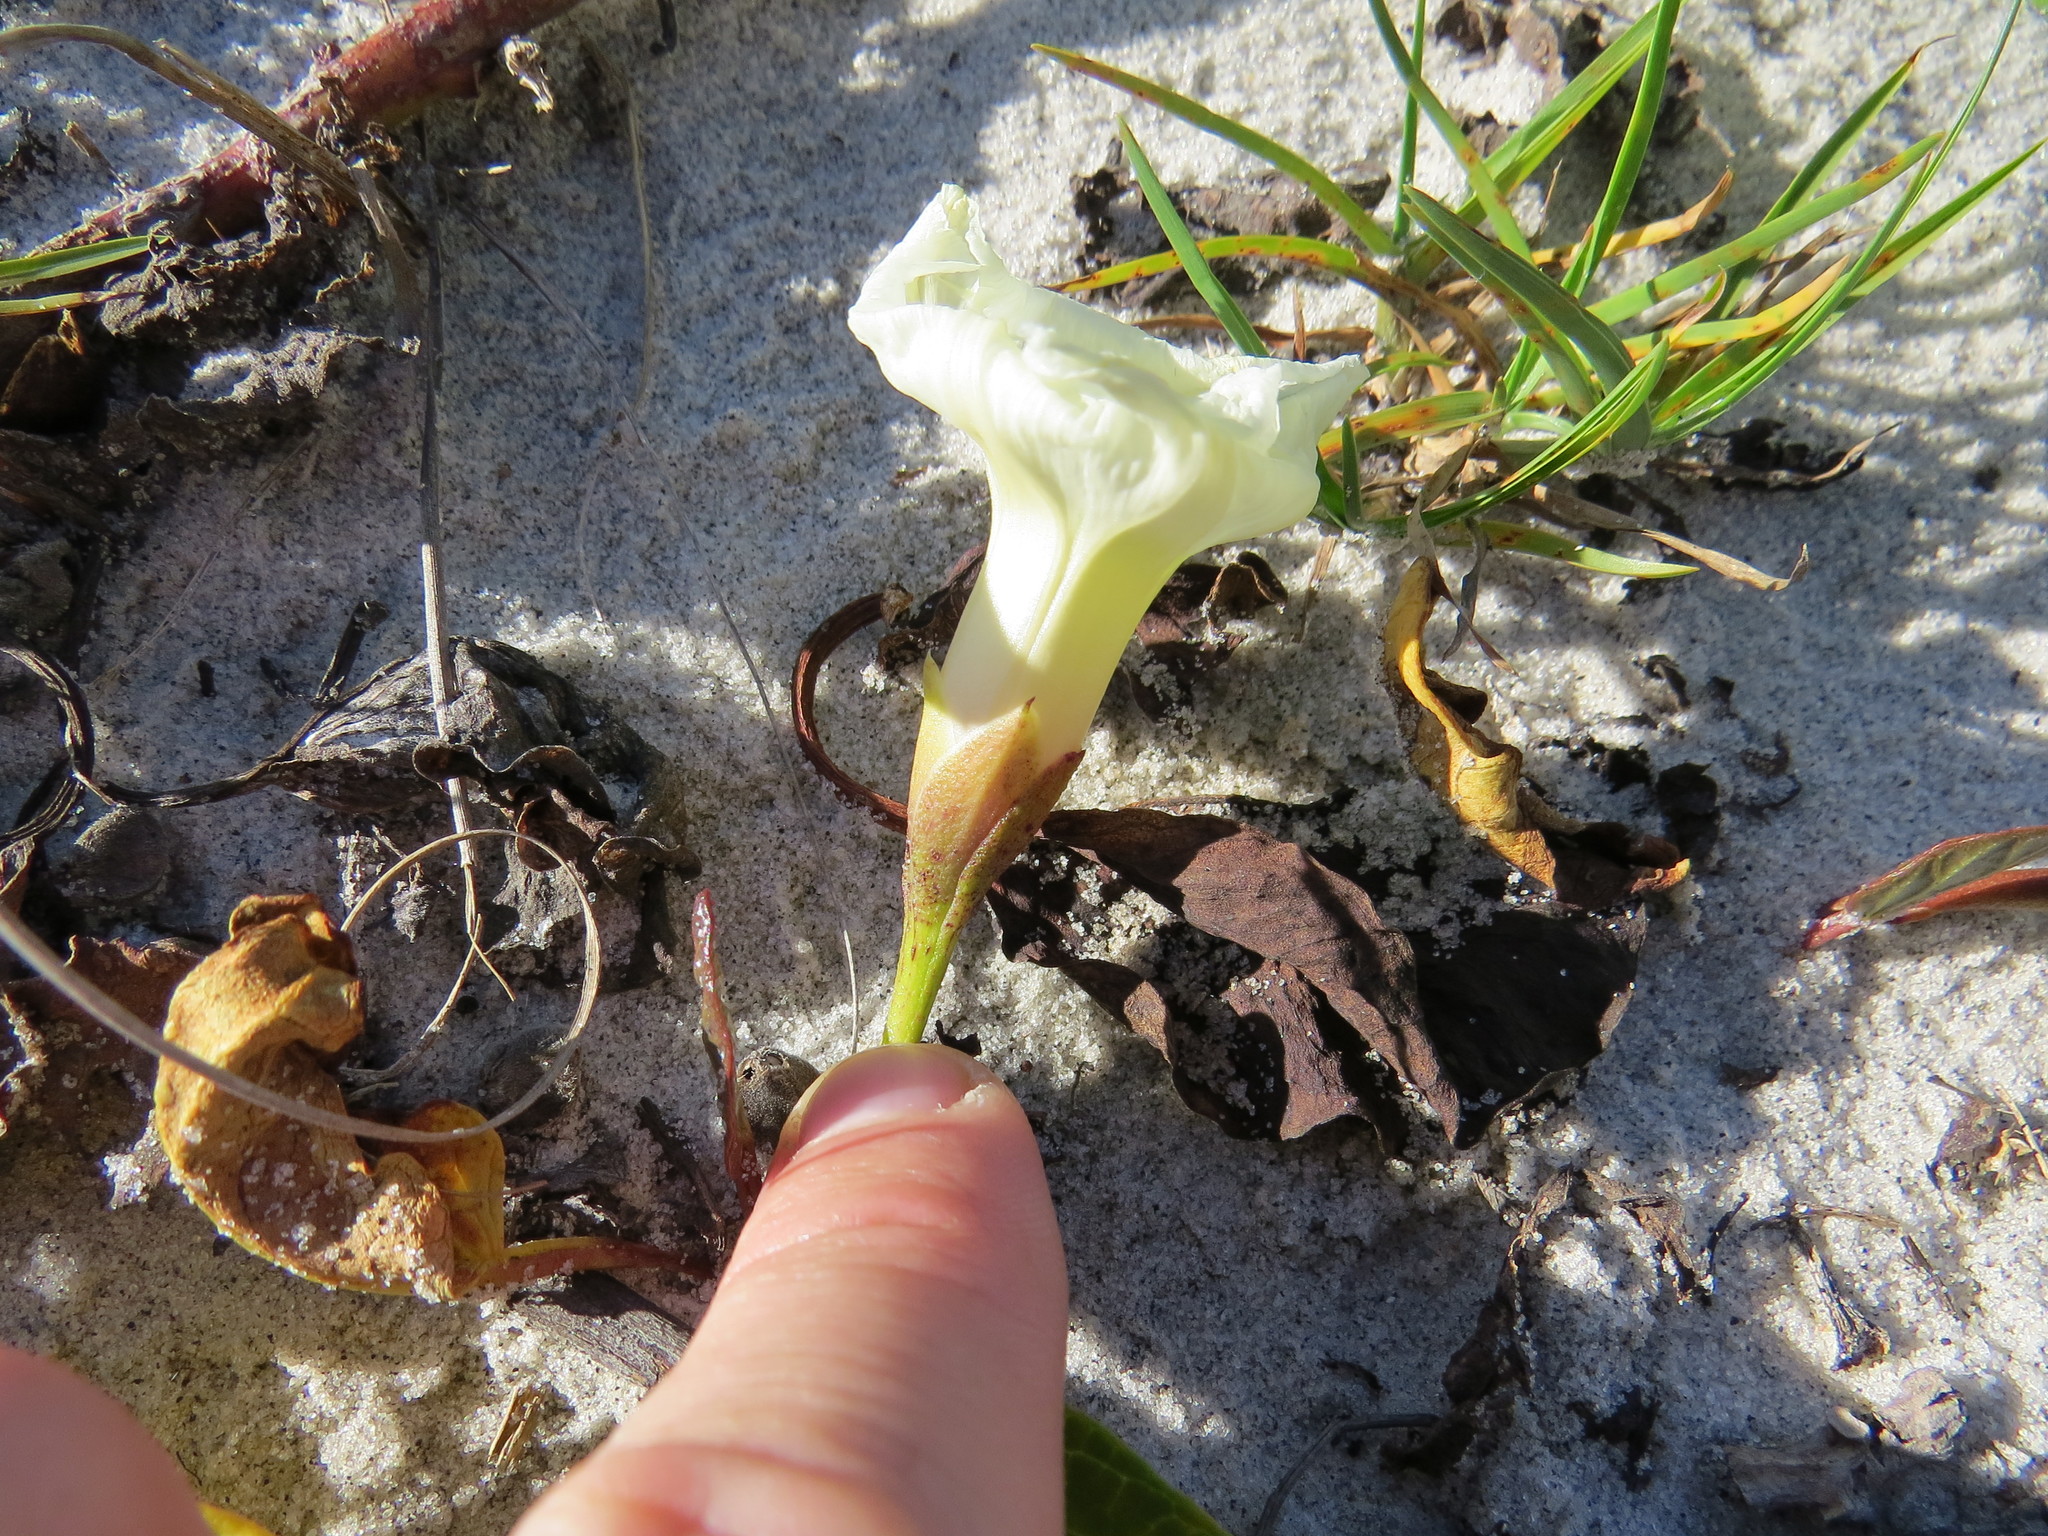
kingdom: Plantae
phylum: Tracheophyta
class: Magnoliopsida
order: Solanales
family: Convolvulaceae
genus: Ipomoea
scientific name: Ipomoea imperati
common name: Fiddle-leaf morning-glory
